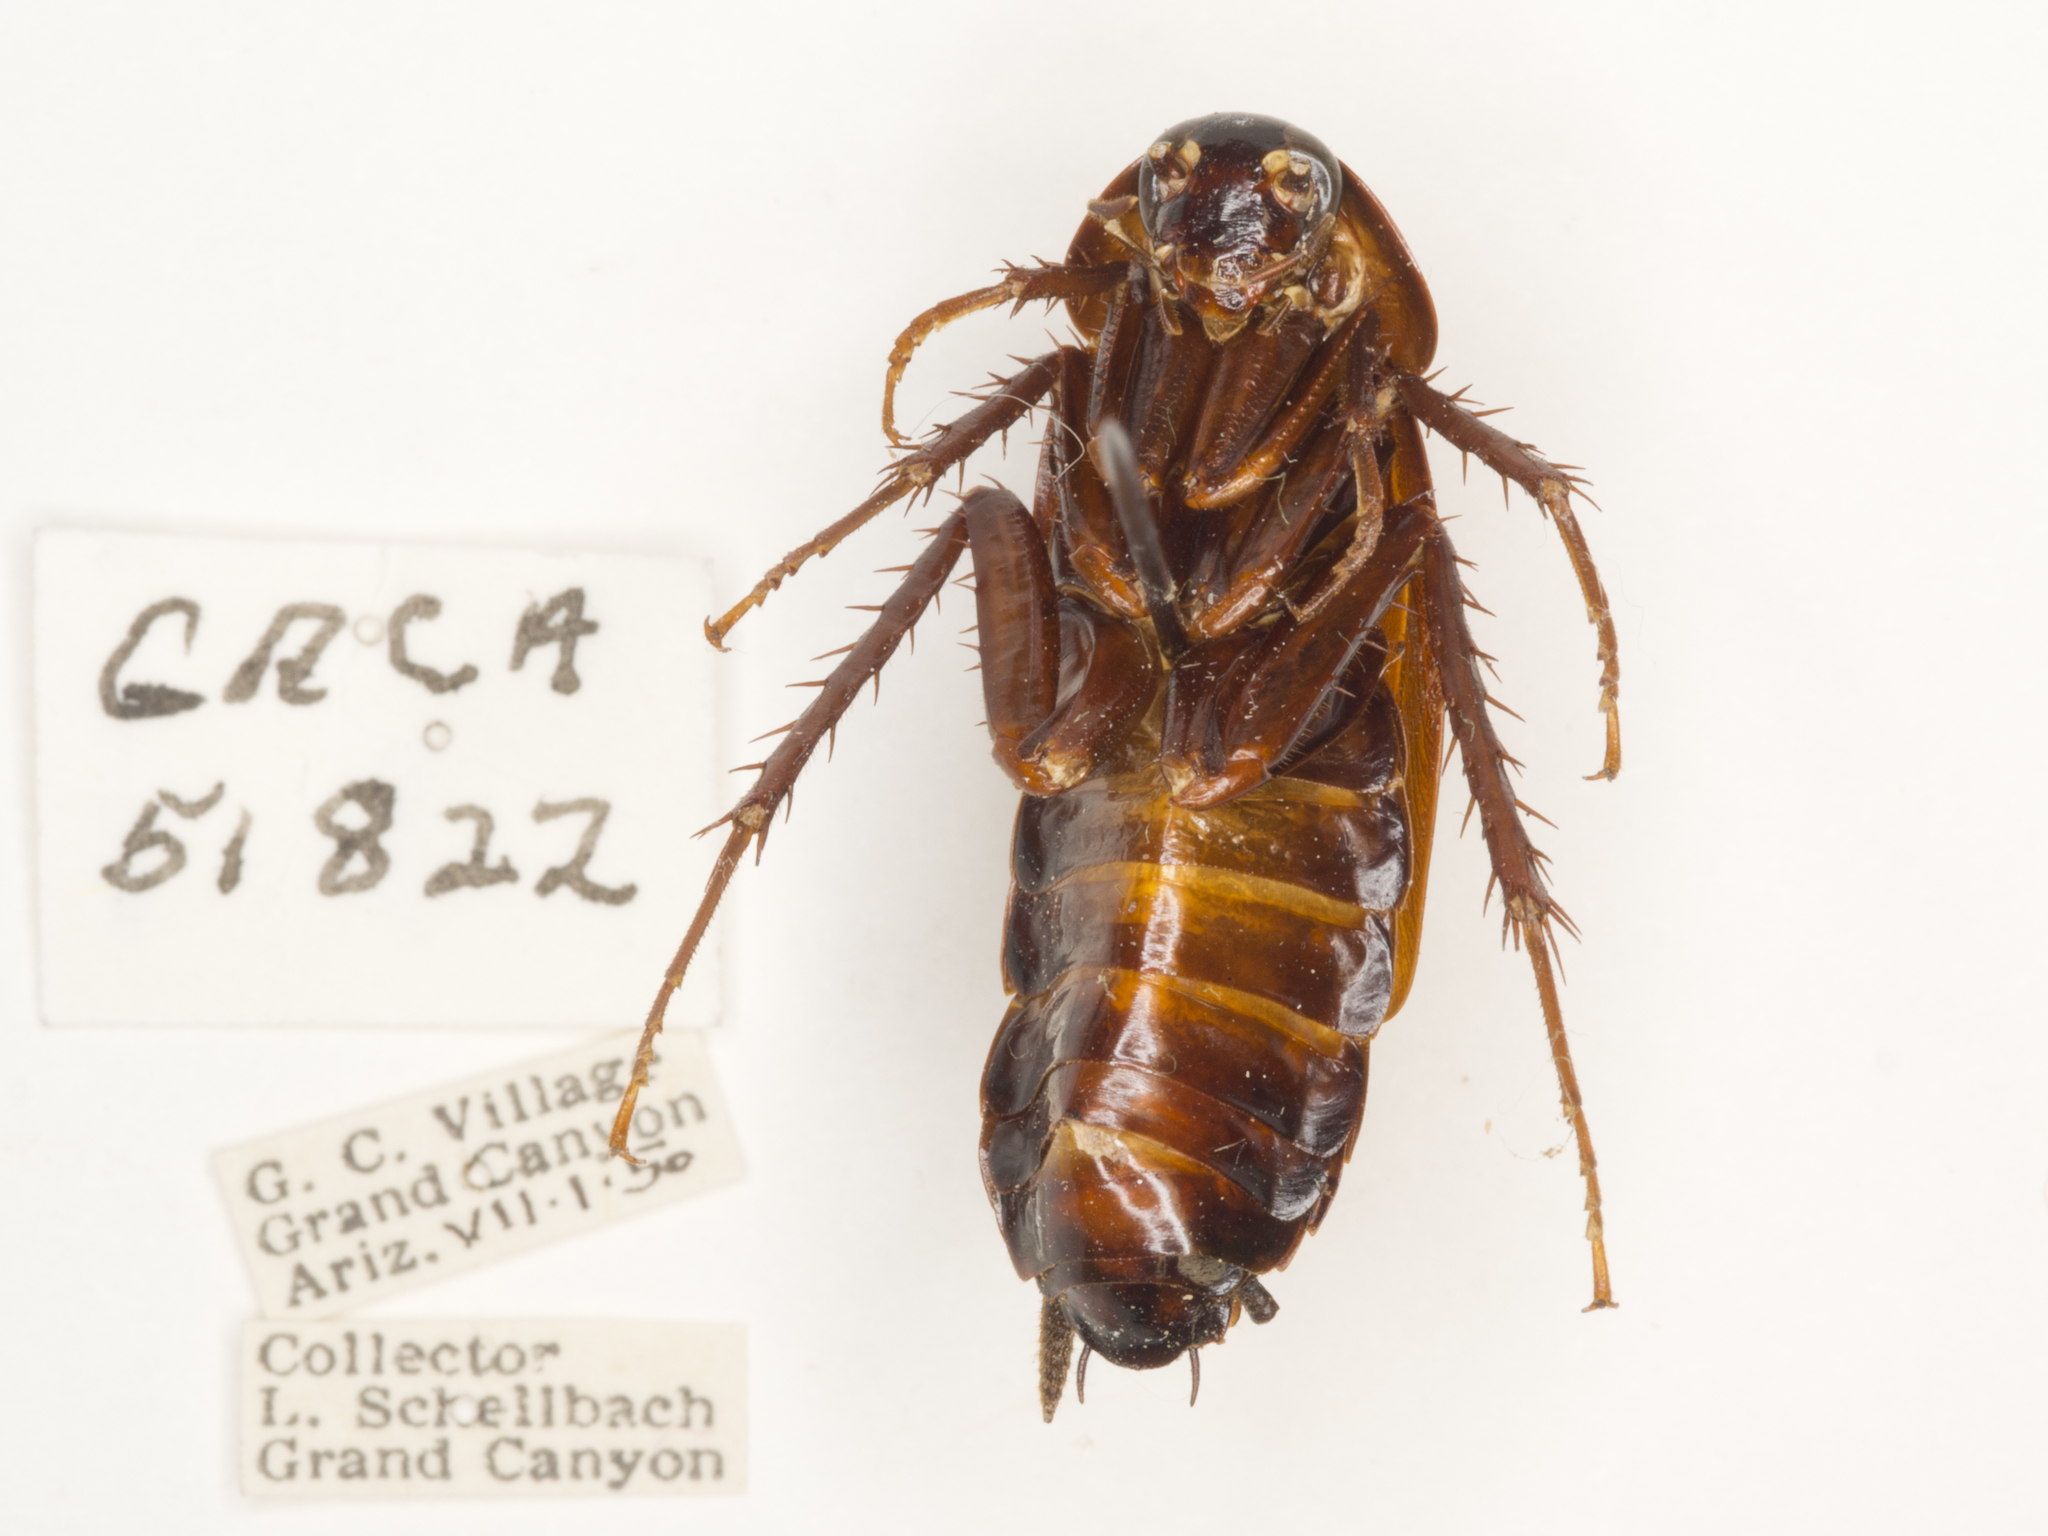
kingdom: Animalia
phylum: Arthropoda
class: Insecta
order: Blattodea
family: Blattidae
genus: Blatta
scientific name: Blatta orientalis
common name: Oriental cockroach
